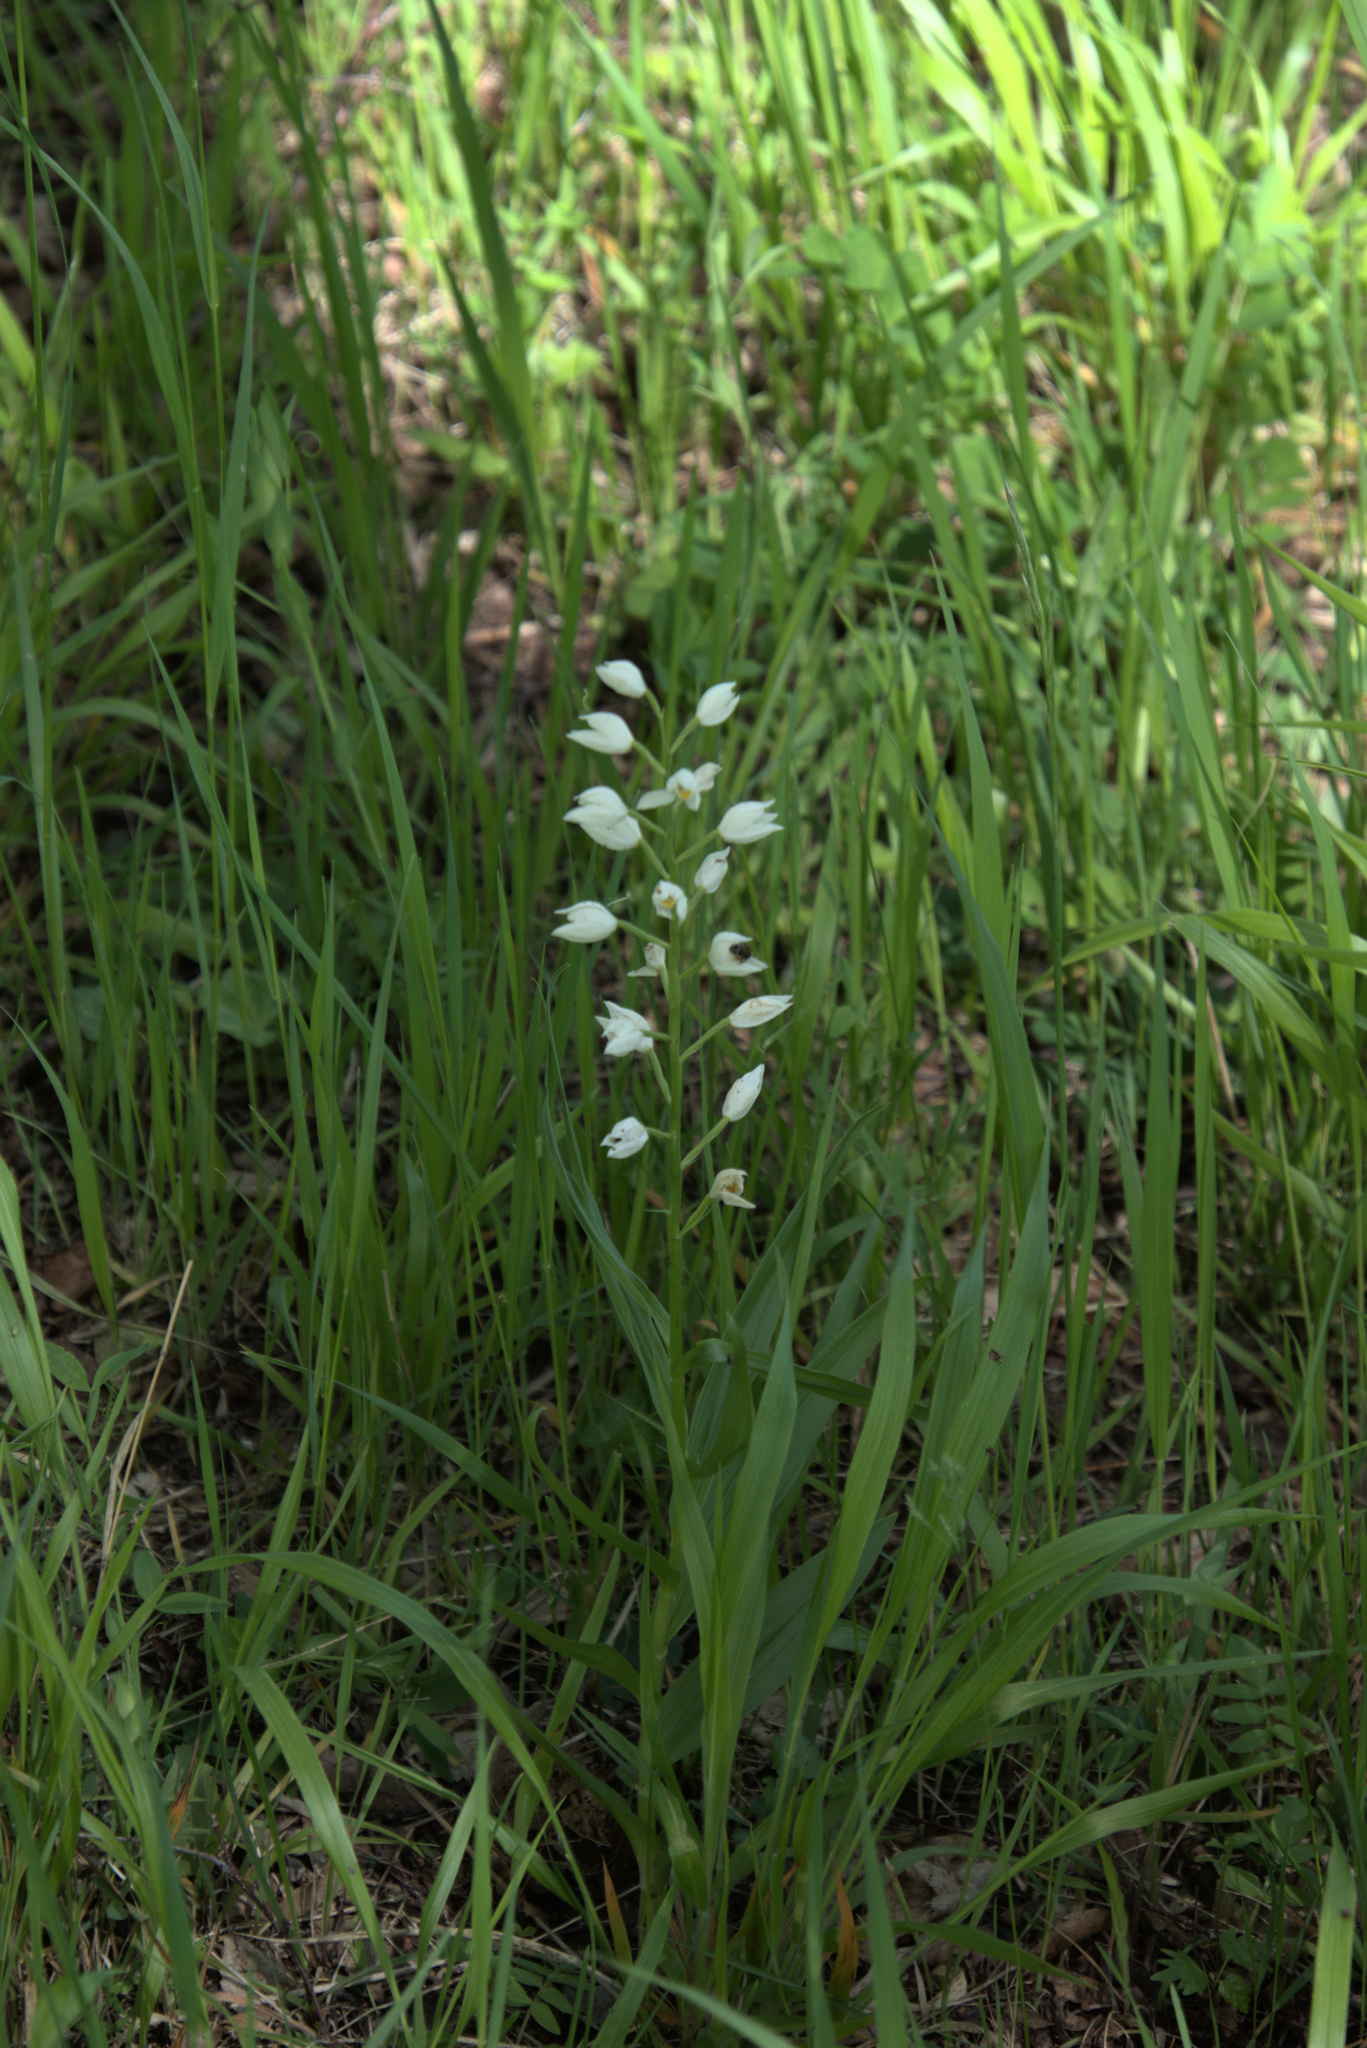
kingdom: Plantae
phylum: Tracheophyta
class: Liliopsida
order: Asparagales
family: Orchidaceae
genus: Cephalanthera
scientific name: Cephalanthera longifolia
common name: Narrow-leaved helleborine
